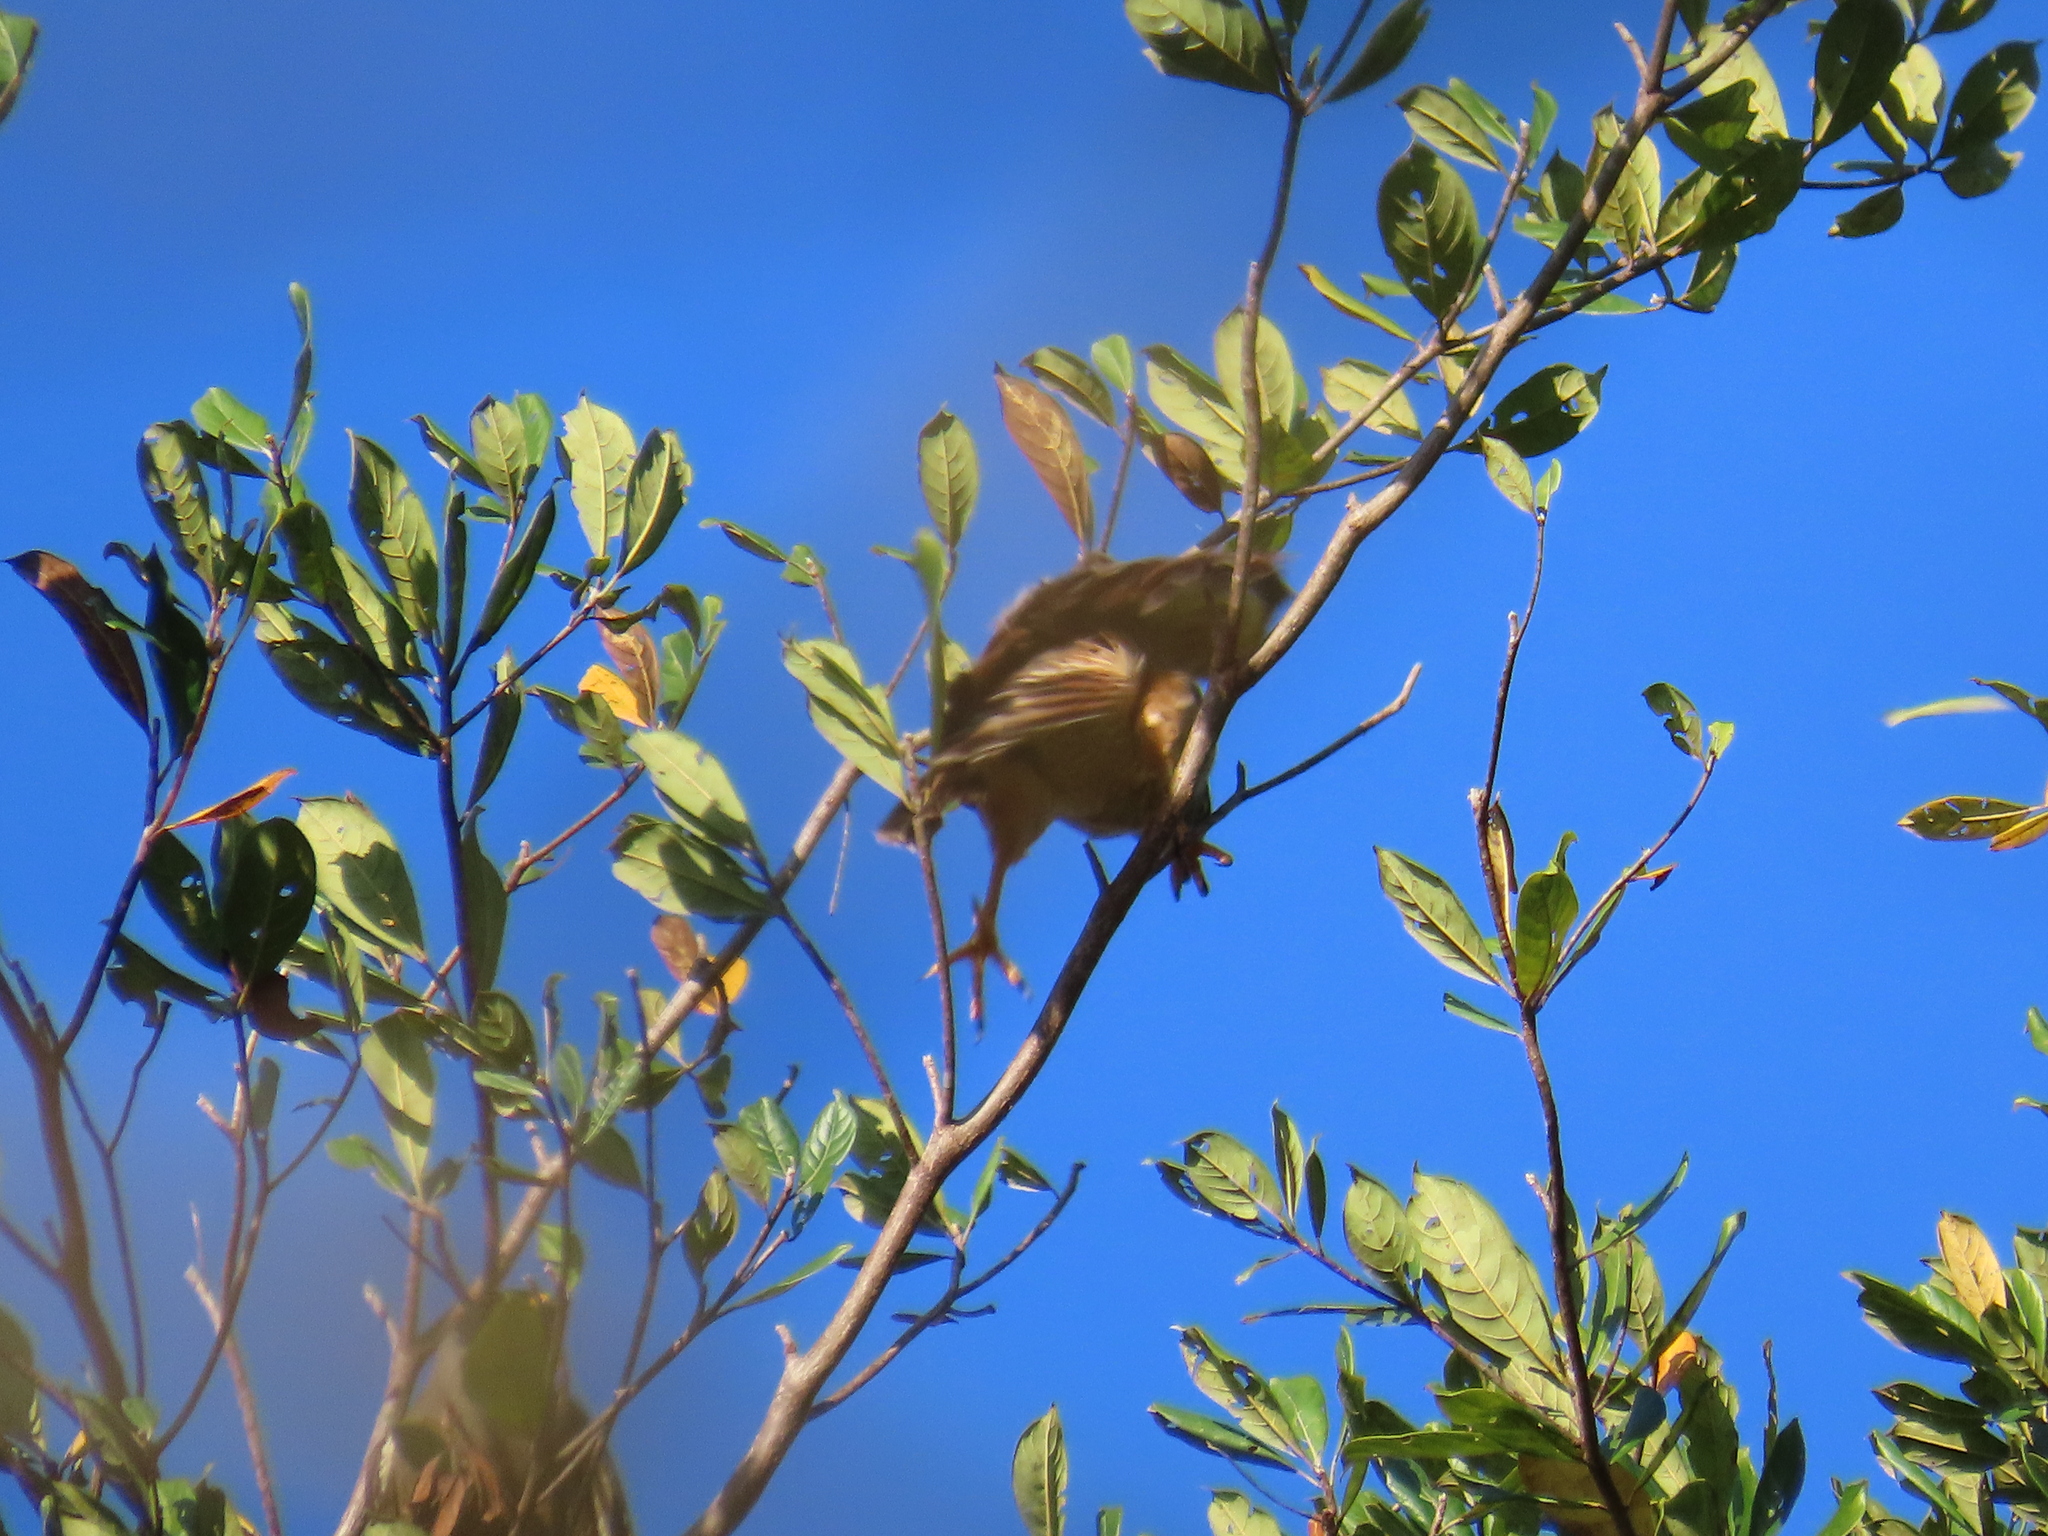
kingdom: Animalia
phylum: Chordata
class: Aves
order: Accipitriformes
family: Accipitridae
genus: Rupornis
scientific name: Rupornis magnirostris
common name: Roadside hawk
